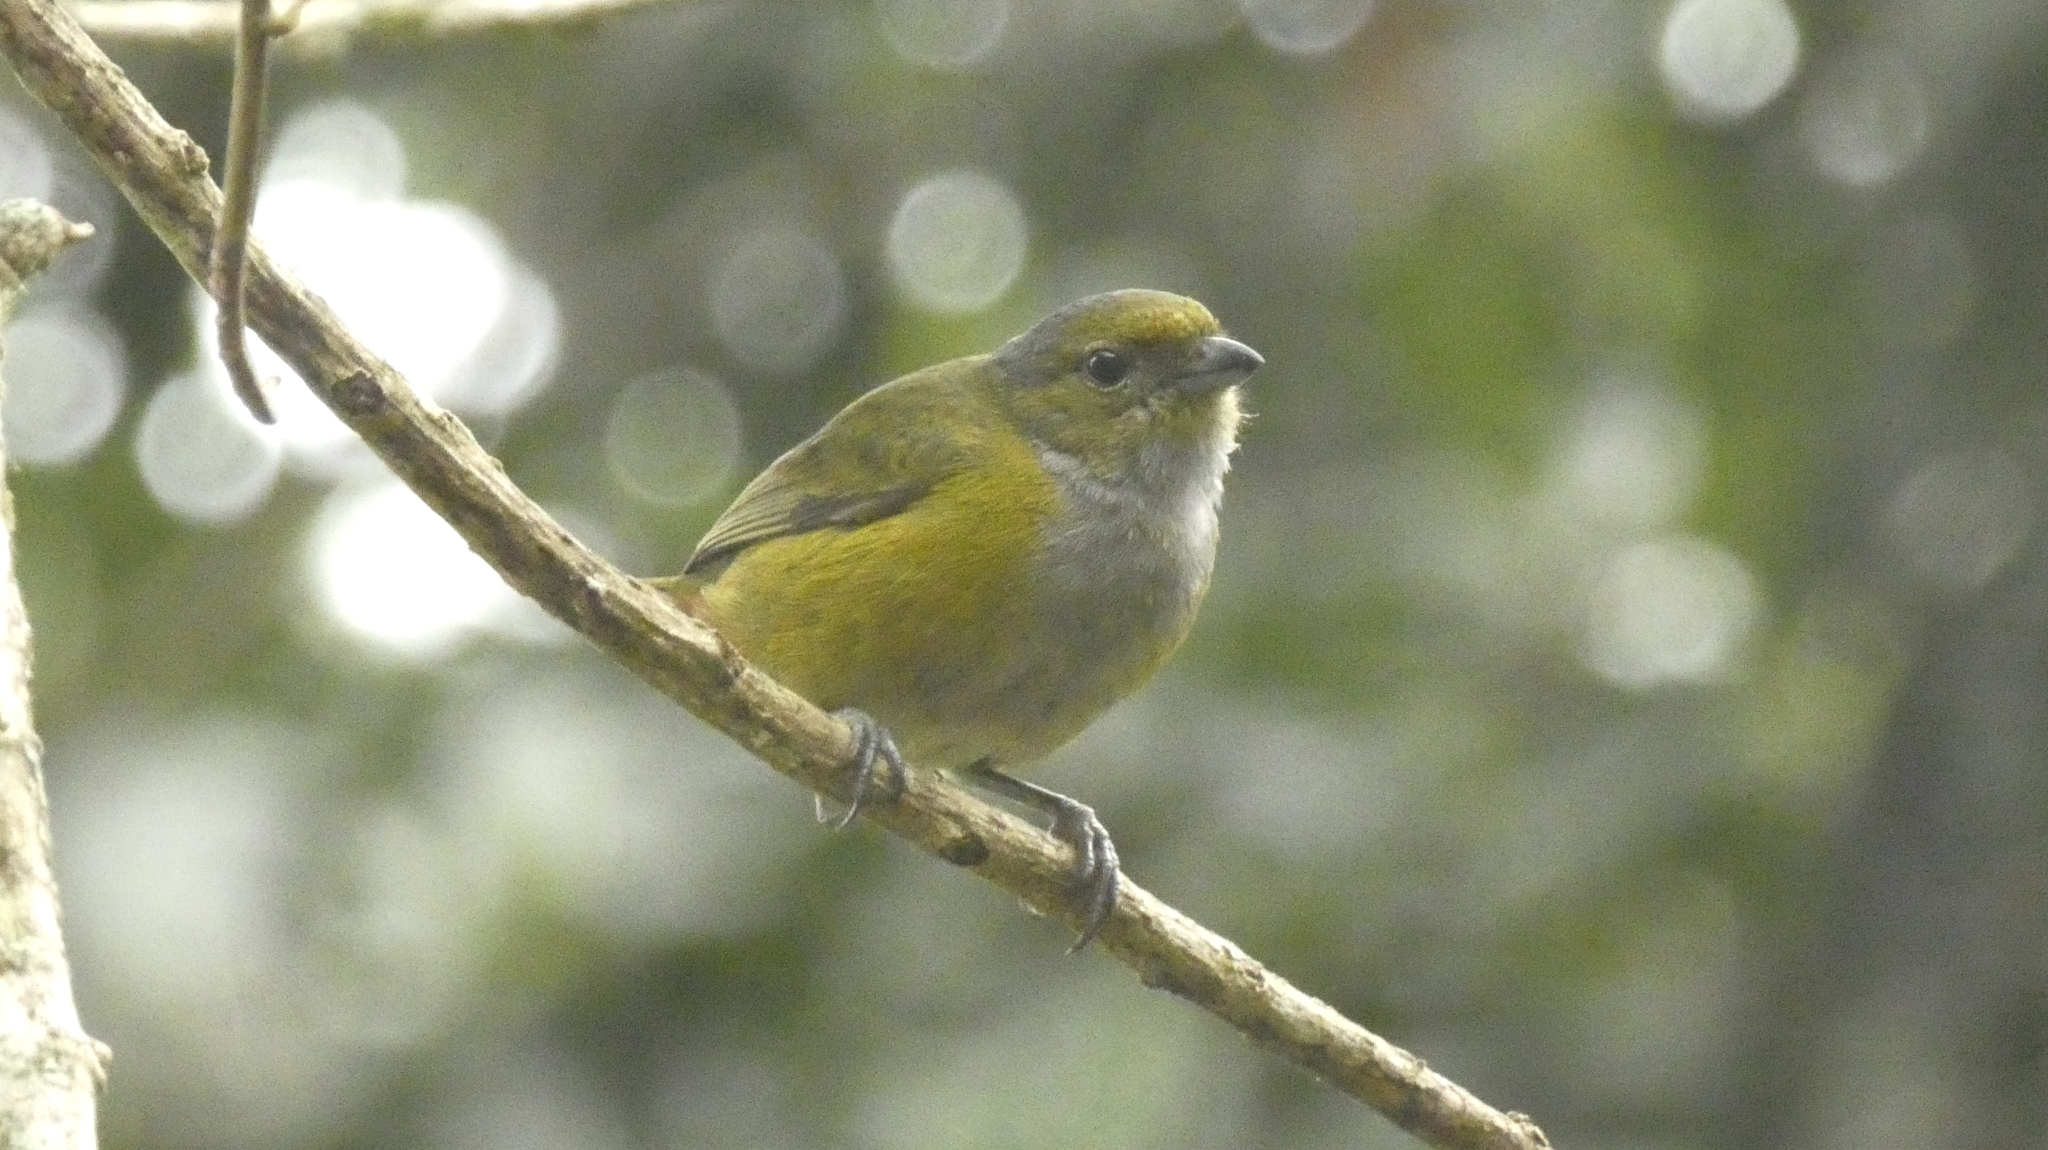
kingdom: Animalia
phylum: Chordata
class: Aves
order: Passeriformes
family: Fringillidae
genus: Euphonia
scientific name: Euphonia pectoralis
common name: Chestnut-bellied euphonia
